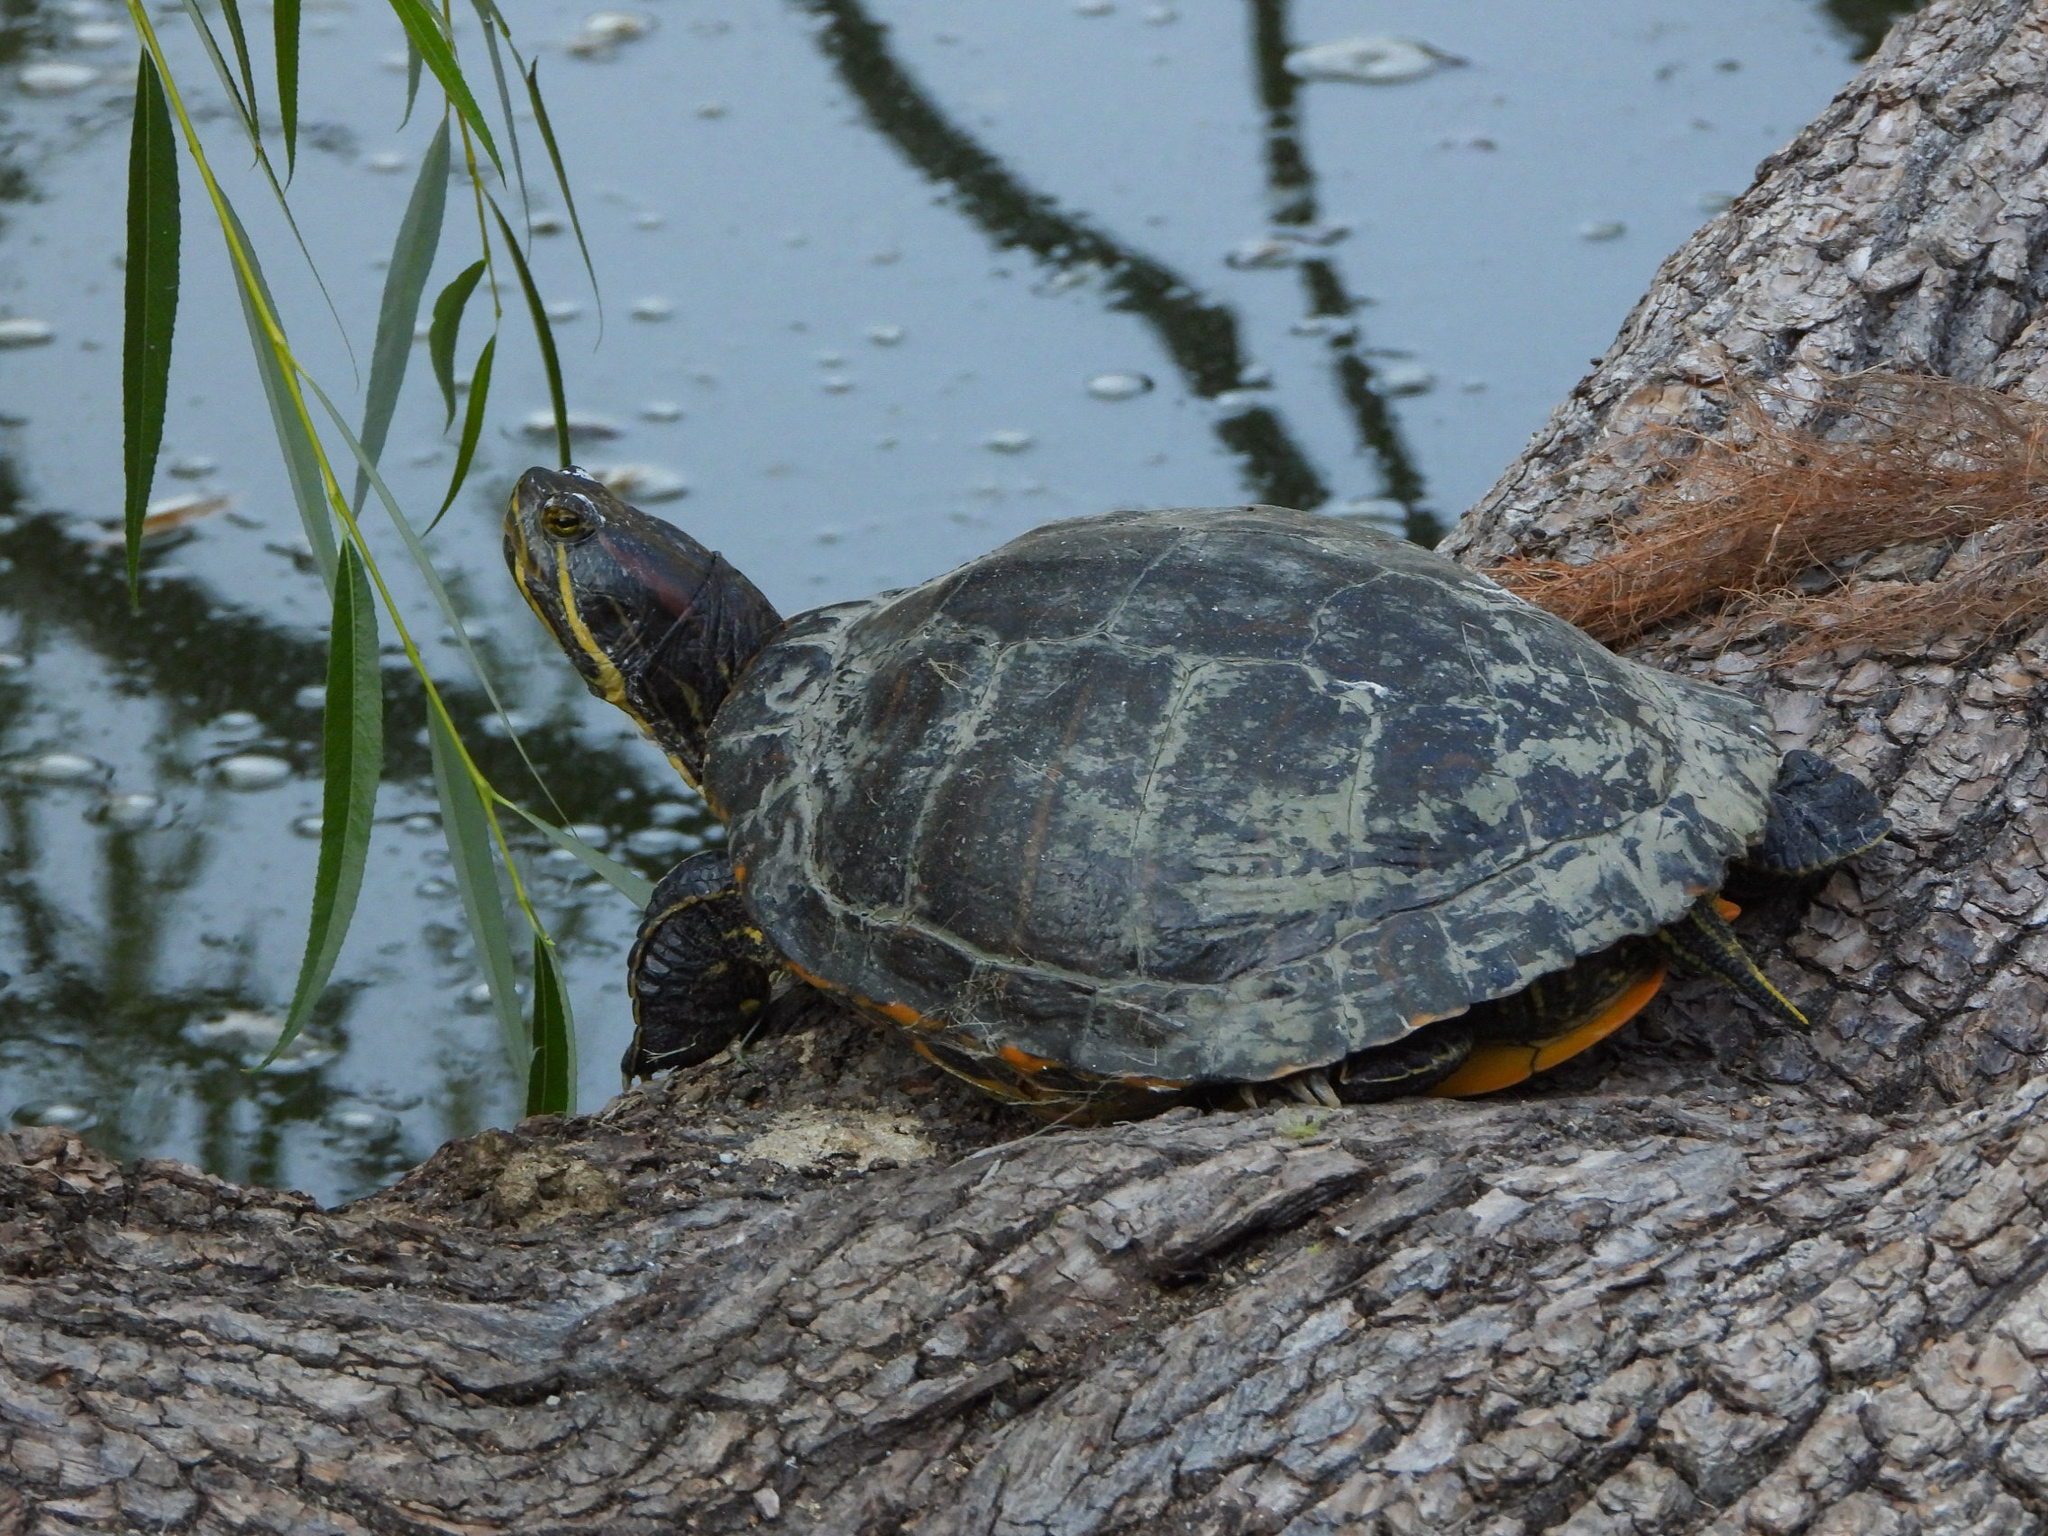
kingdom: Animalia
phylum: Chordata
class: Testudines
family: Emydidae
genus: Trachemys
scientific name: Trachemys scripta
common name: Slider
